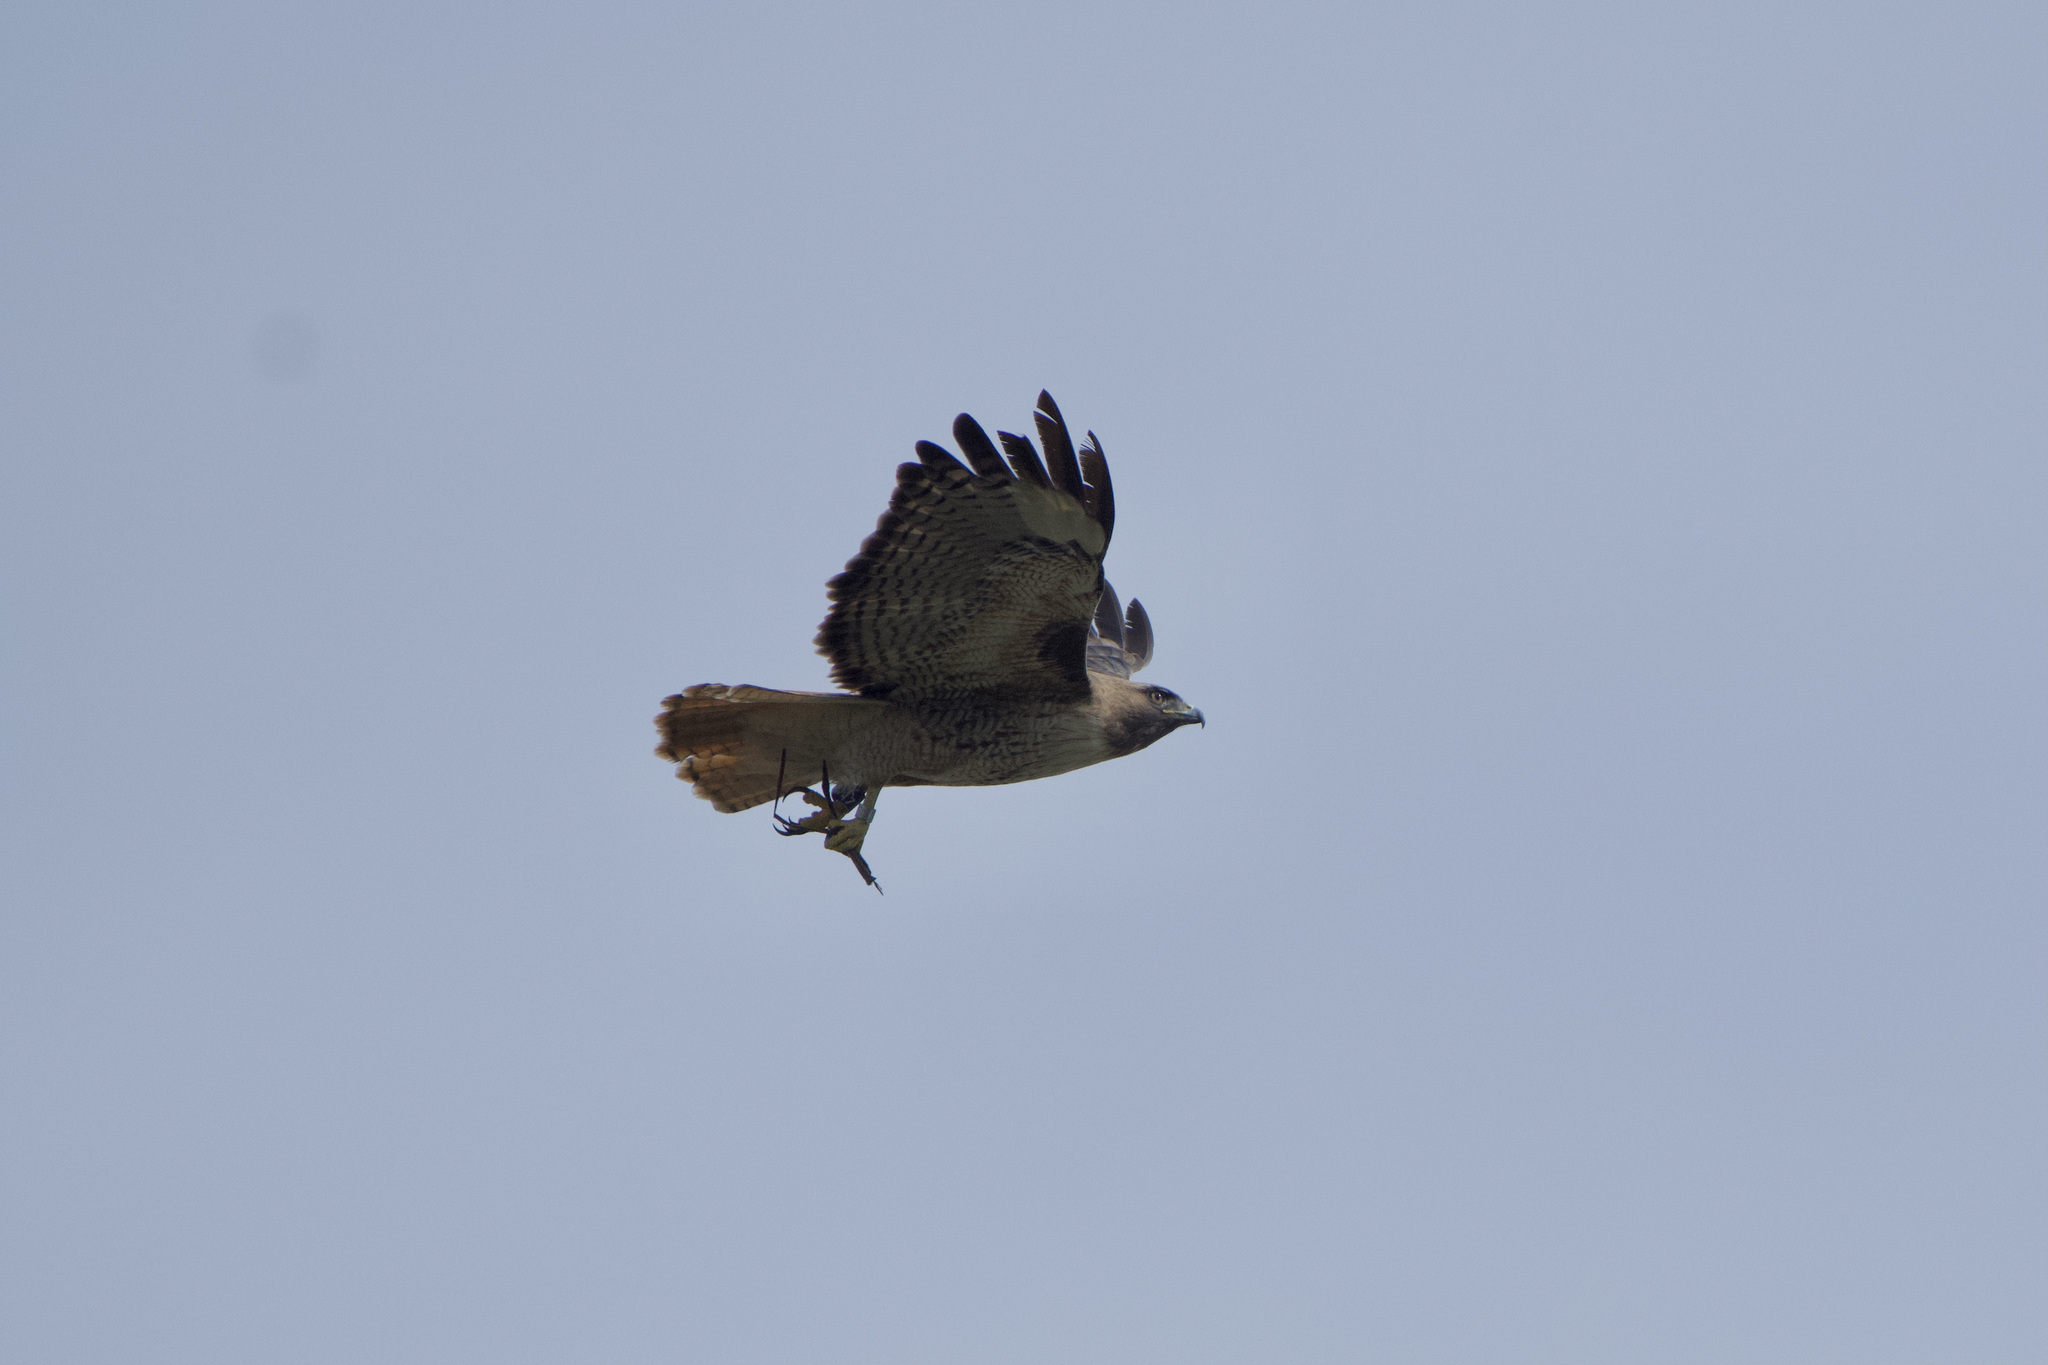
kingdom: Animalia
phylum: Chordata
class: Aves
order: Accipitriformes
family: Accipitridae
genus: Buteo
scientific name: Buteo jamaicensis
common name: Red-tailed hawk
